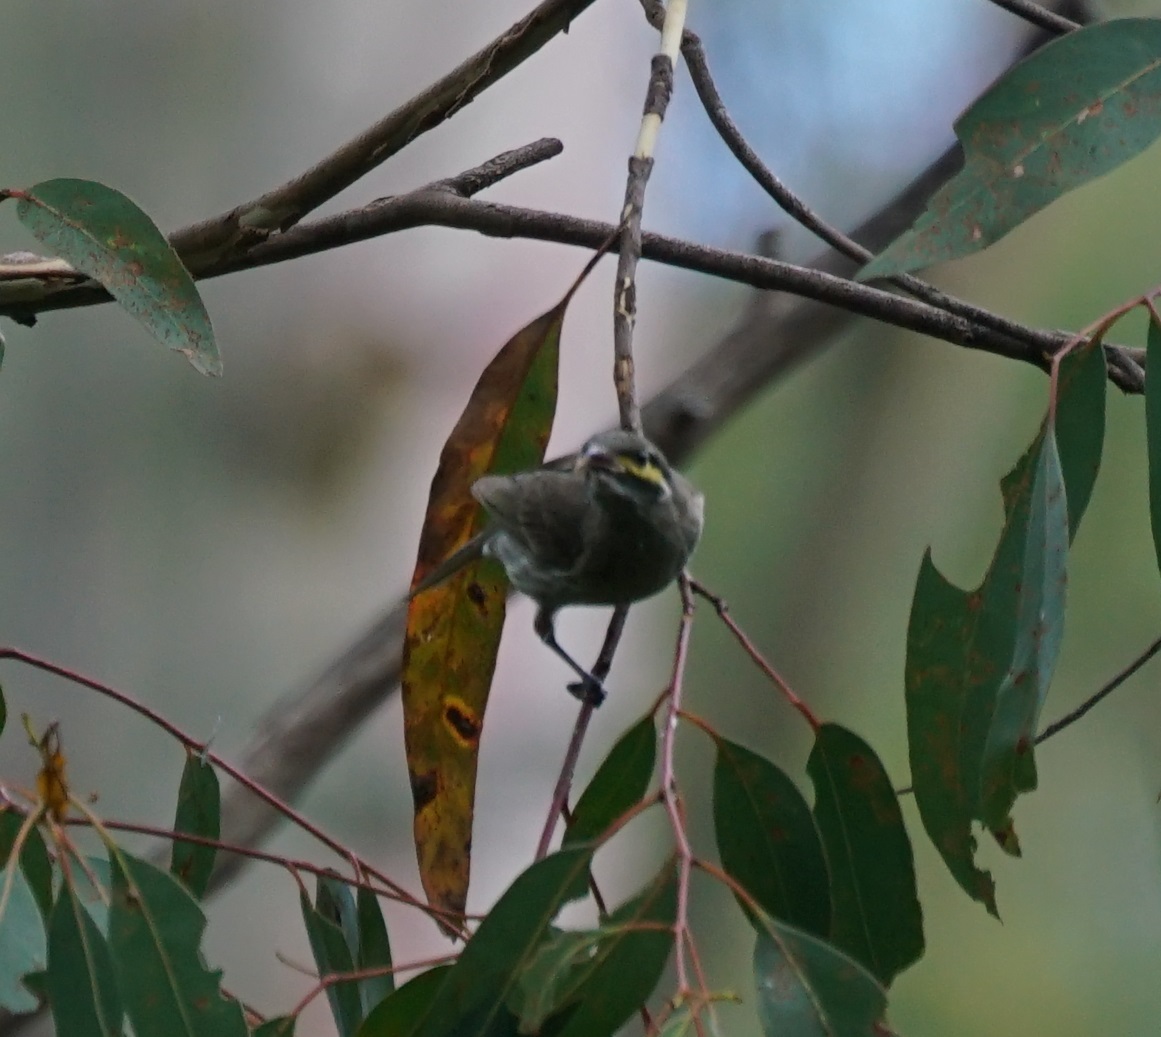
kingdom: Animalia
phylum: Chordata
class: Aves
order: Passeriformes
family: Meliphagidae
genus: Caligavis
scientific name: Caligavis chrysops
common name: Yellow-faced honeyeater
